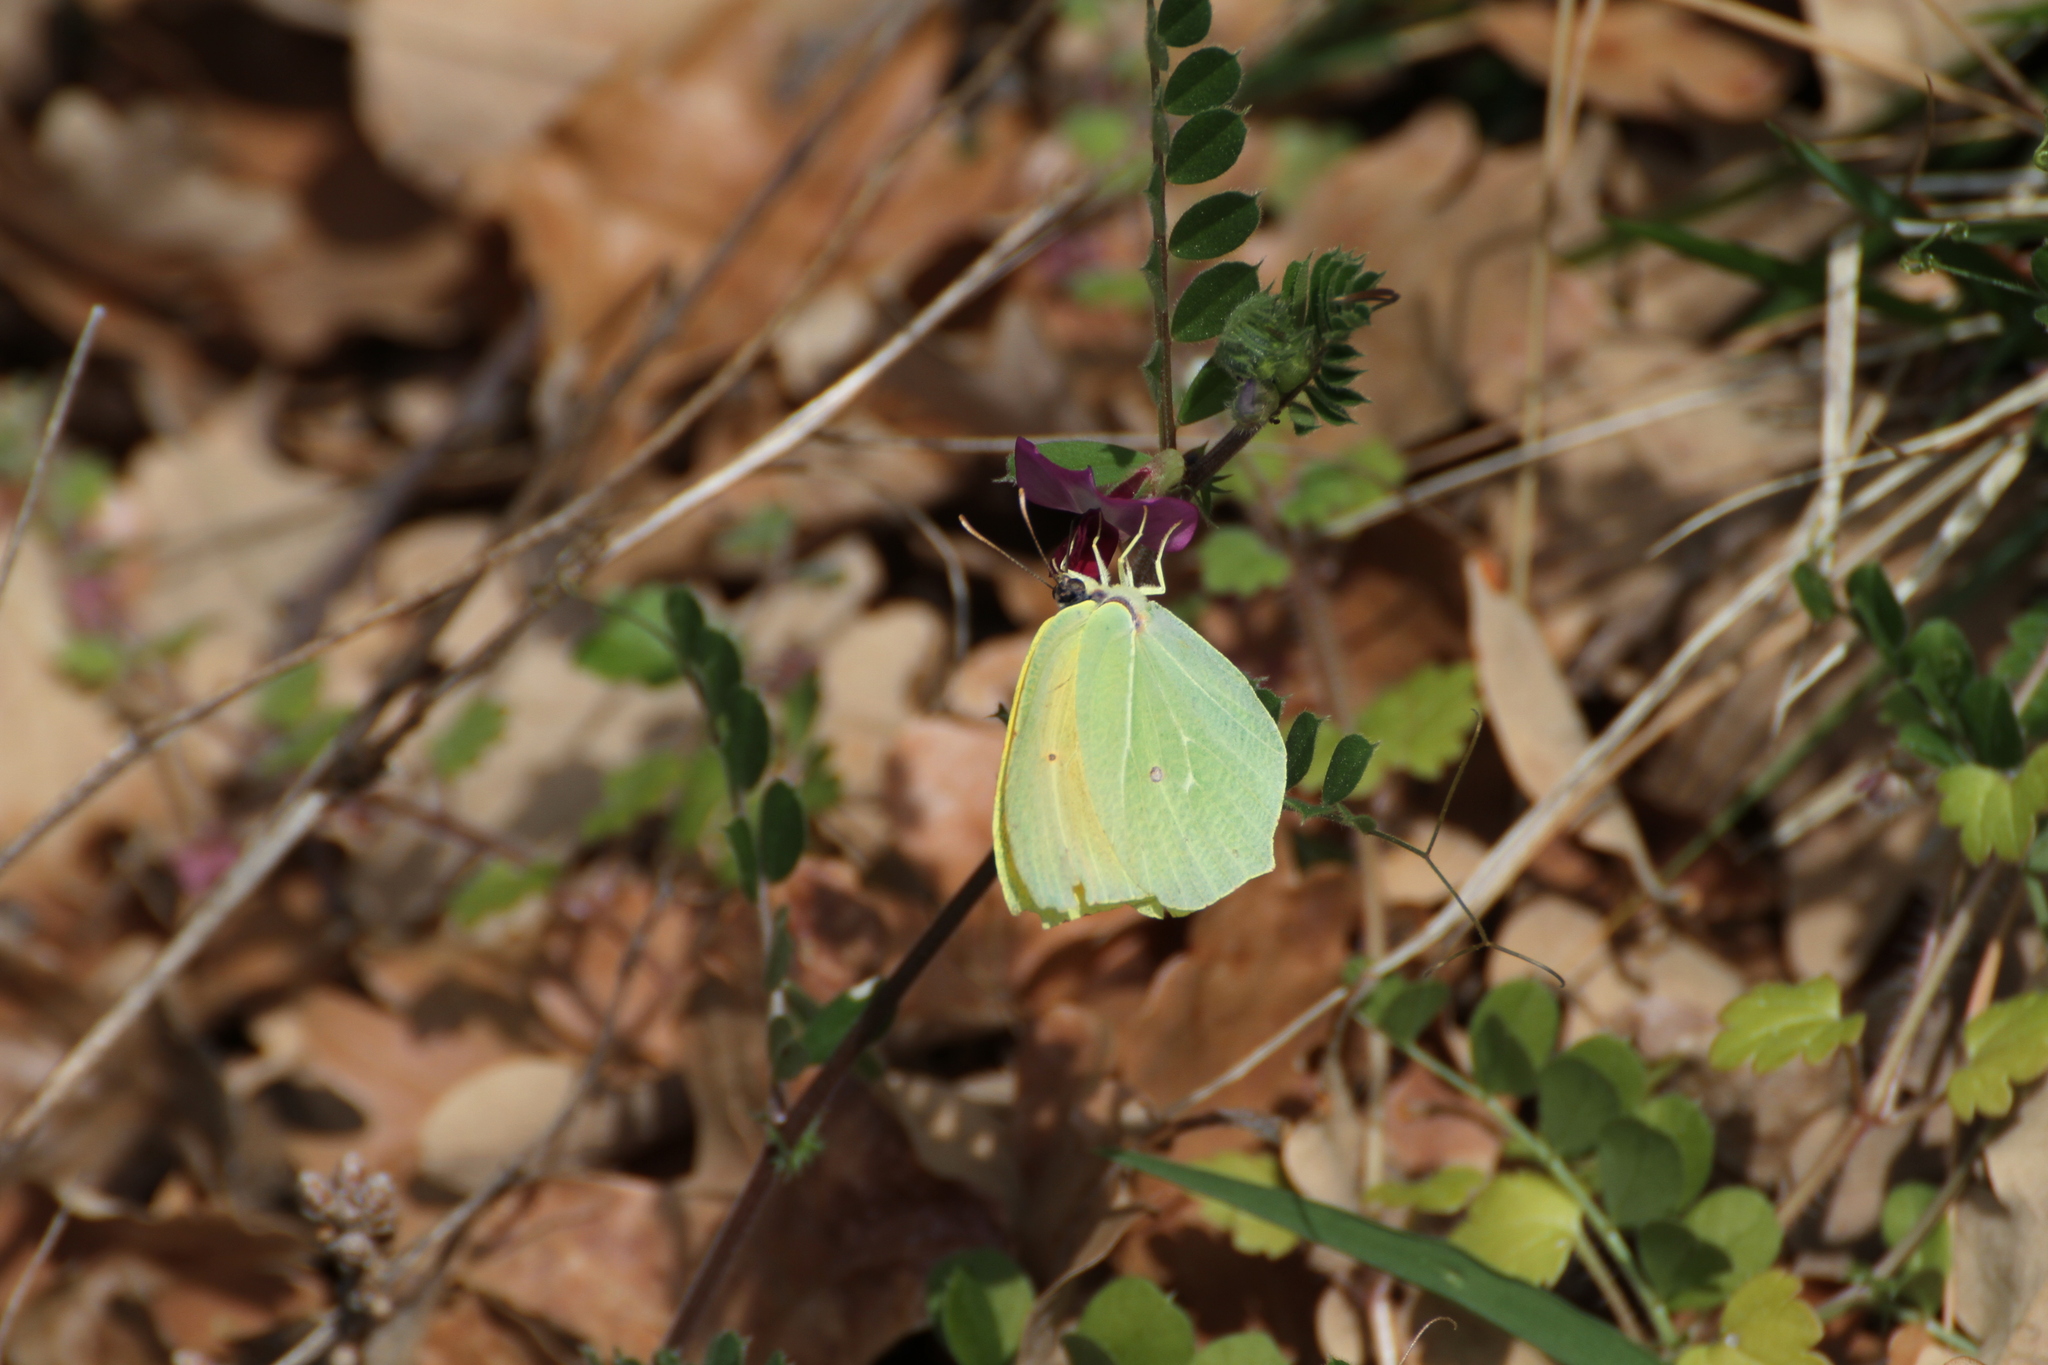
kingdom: Animalia
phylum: Arthropoda
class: Insecta
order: Lepidoptera
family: Pieridae
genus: Gonepteryx
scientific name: Gonepteryx cleopatra
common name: Cleopatra
